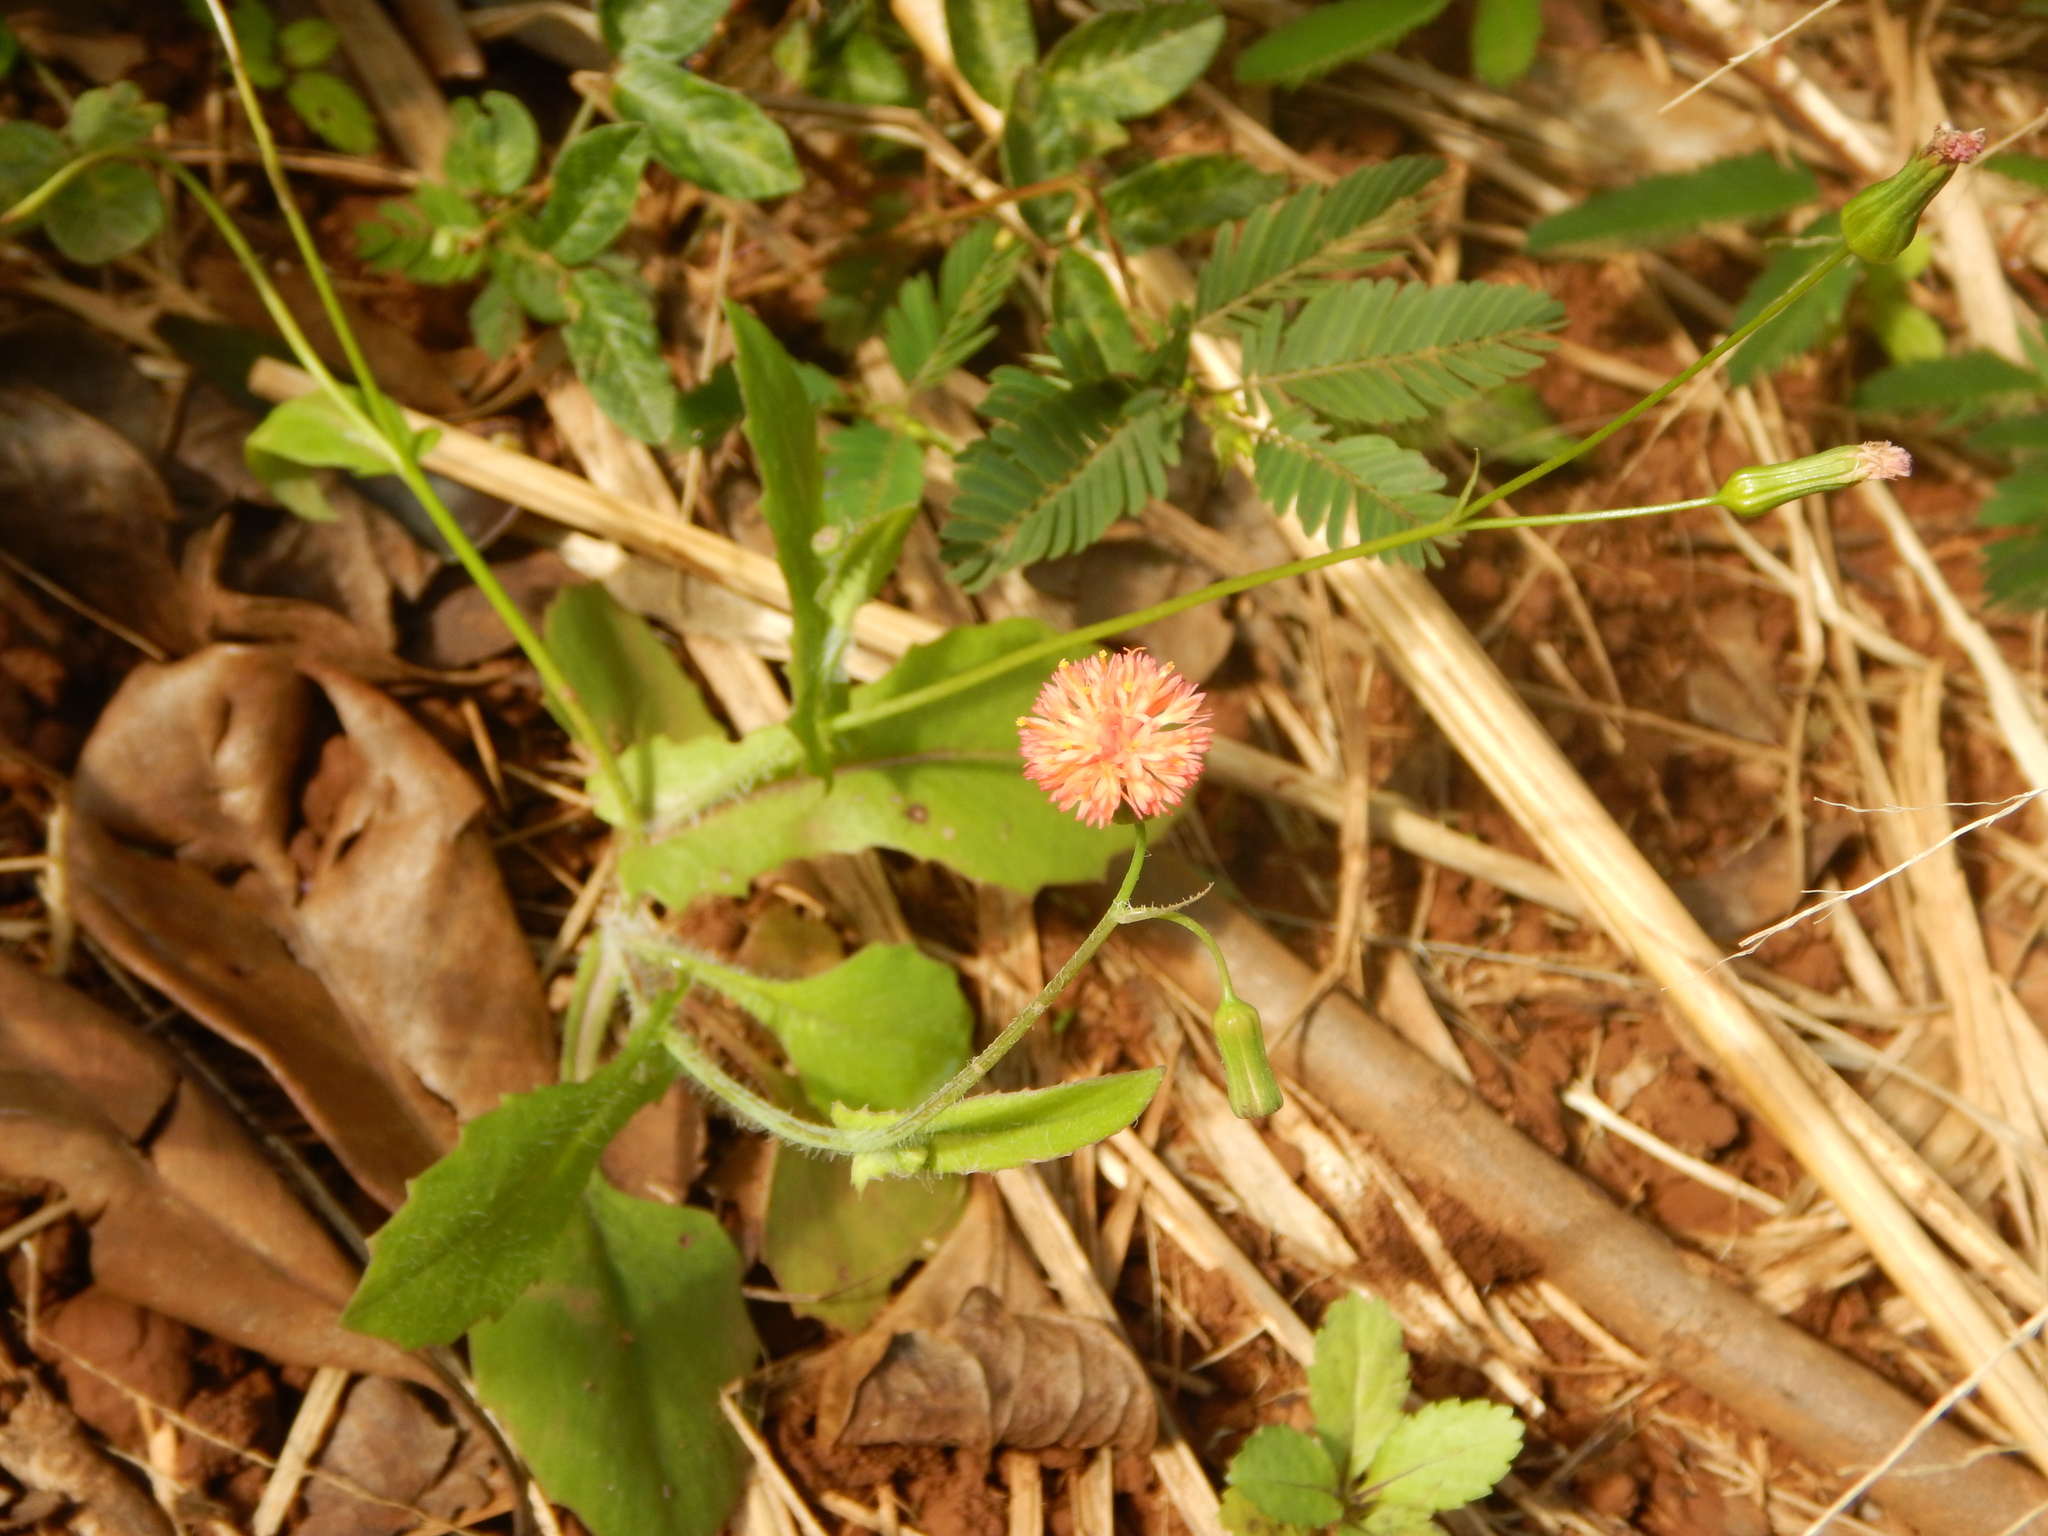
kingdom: Plantae
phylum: Tracheophyta
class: Magnoliopsida
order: Asterales
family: Asteraceae
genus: Emilia
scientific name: Emilia fosbergii
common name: Florida tasselflower
